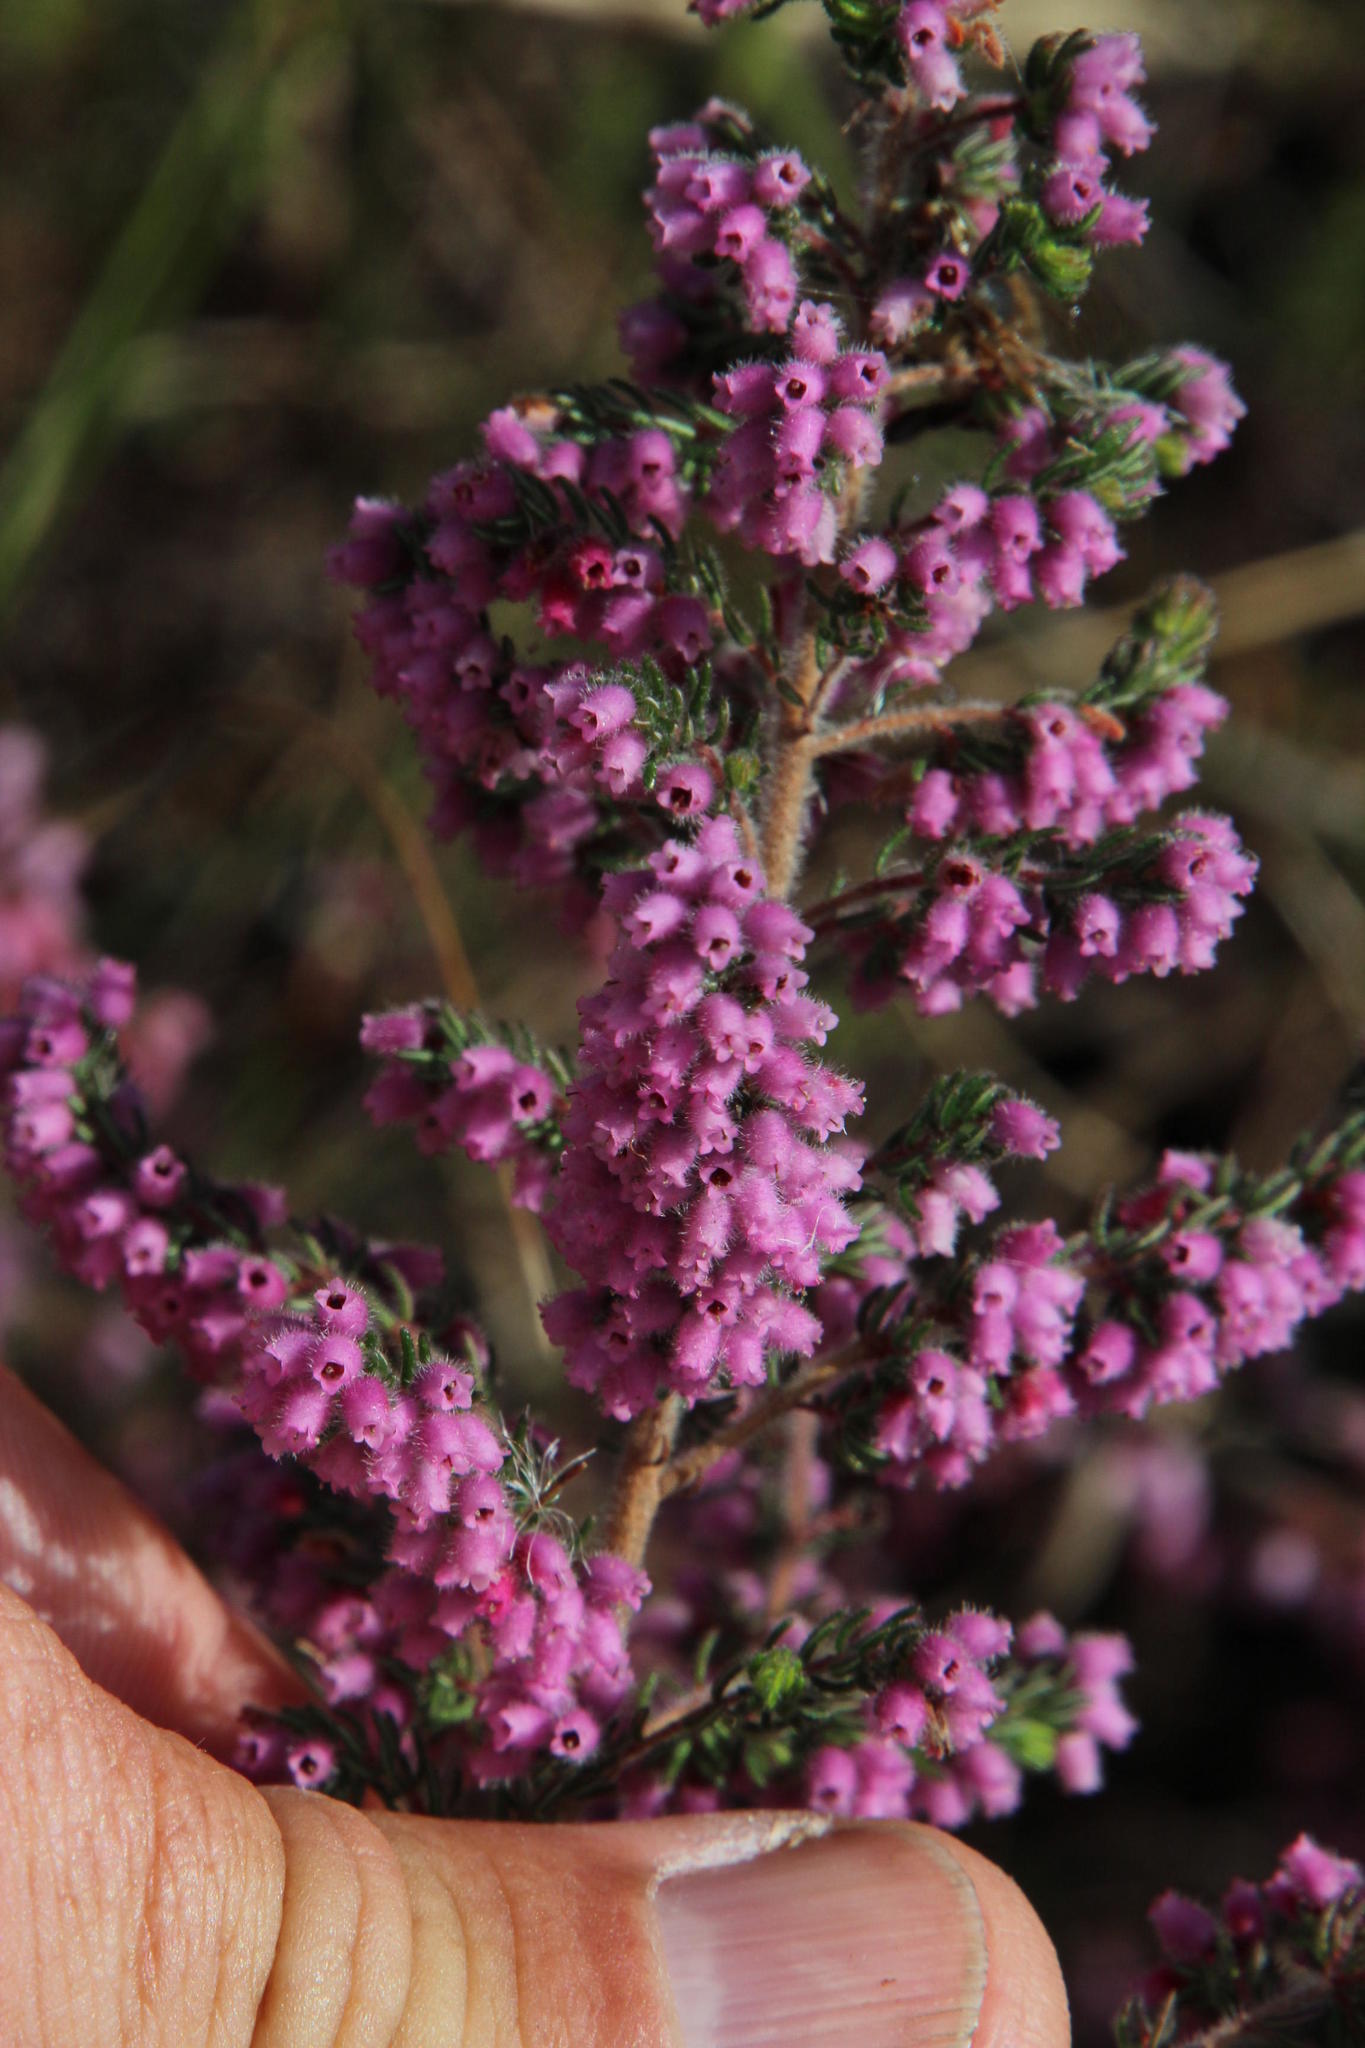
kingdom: Plantae
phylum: Tracheophyta
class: Magnoliopsida
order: Ericales
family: Ericaceae
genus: Erica
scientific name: Erica parviflora
